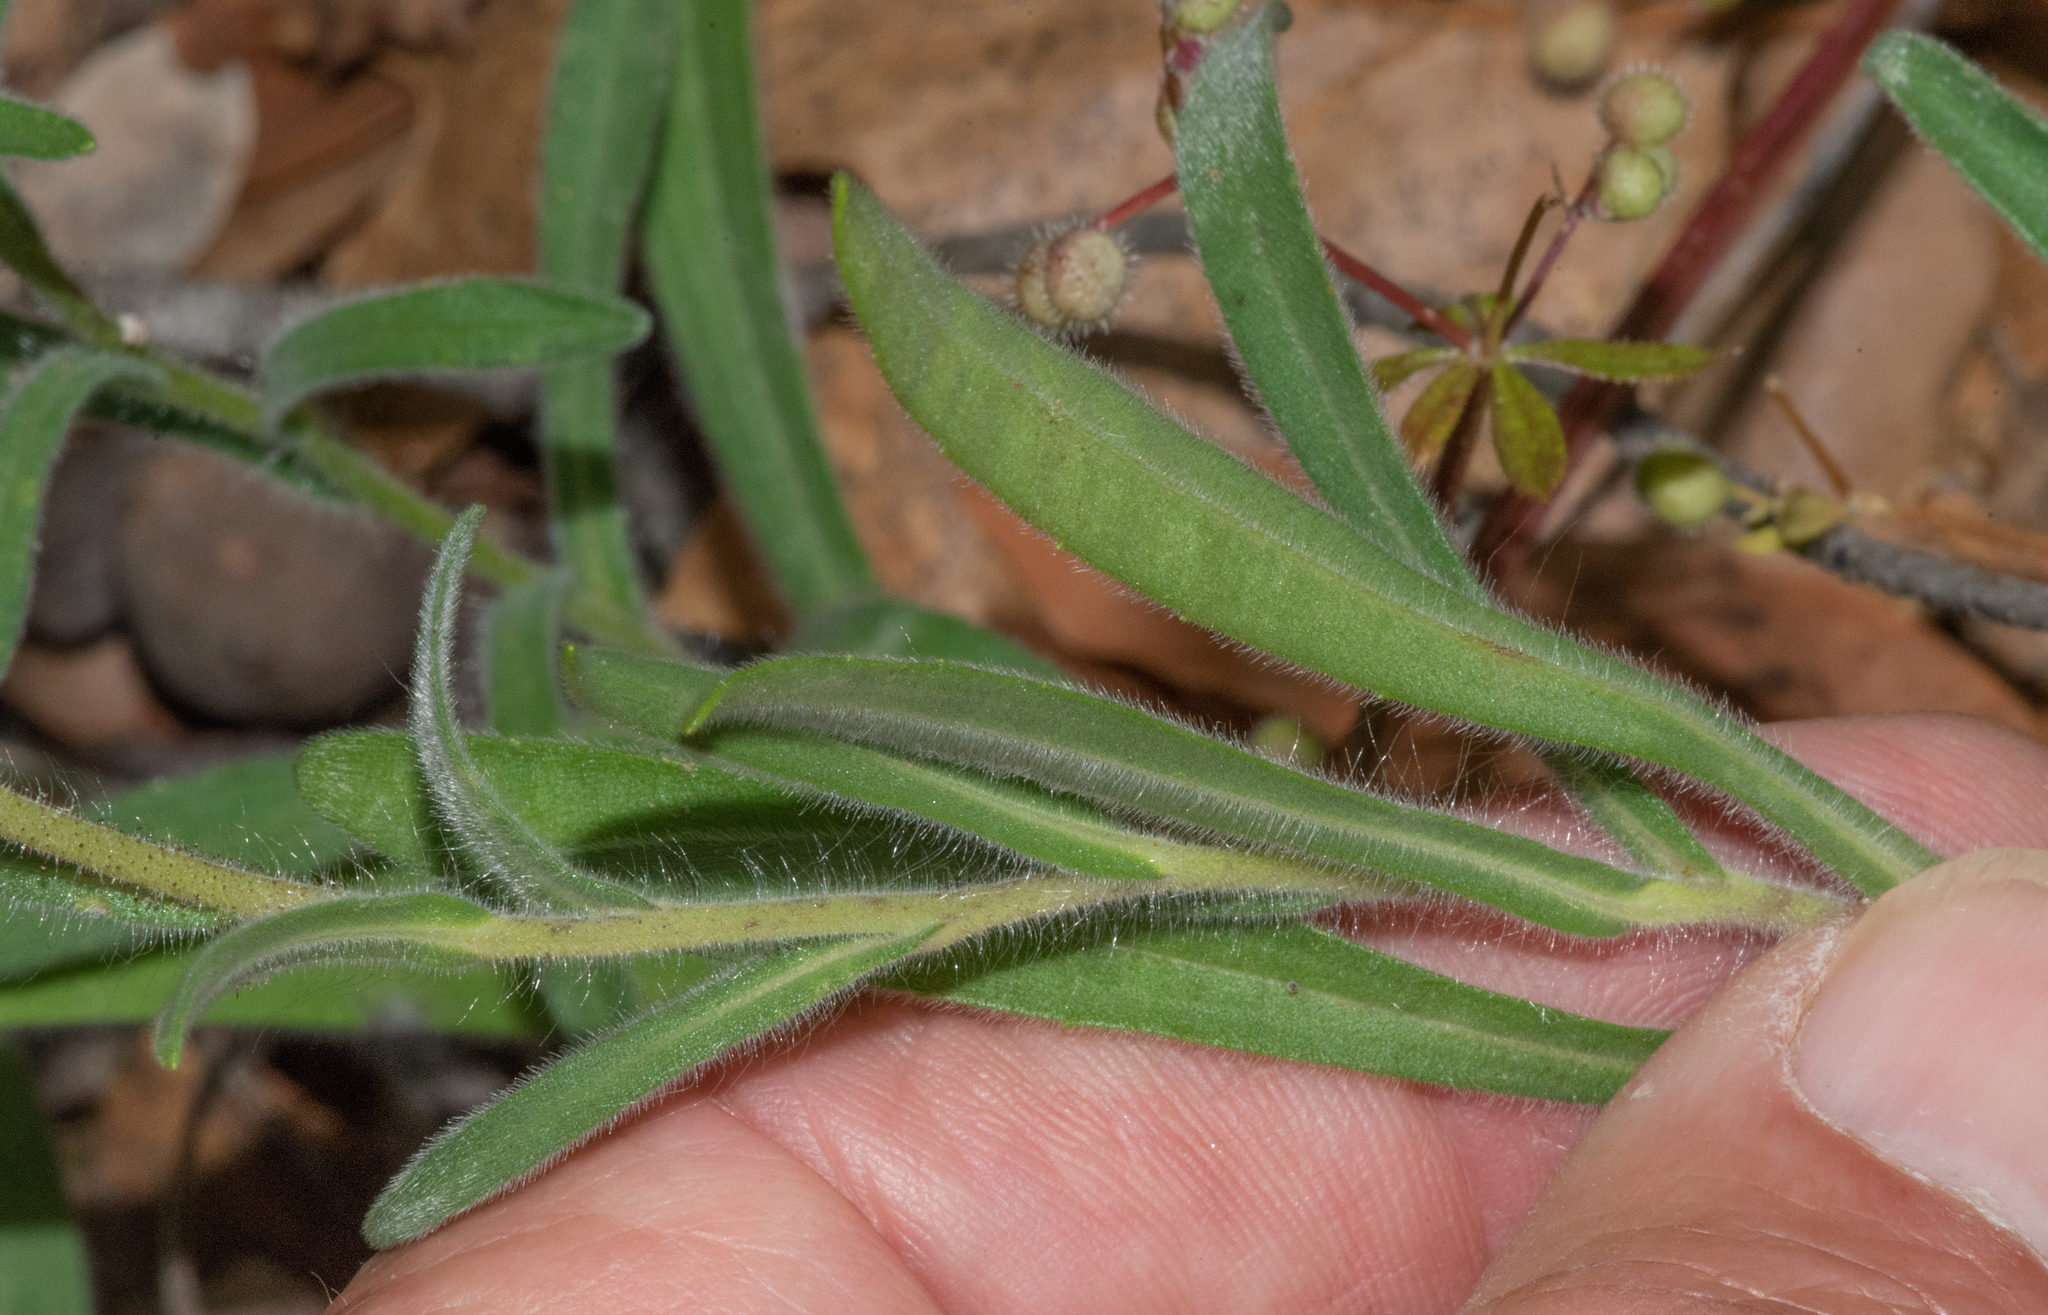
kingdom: Plantae
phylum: Tracheophyta
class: Magnoliopsida
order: Asterales
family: Asteraceae
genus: Madia
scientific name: Madia elegans
